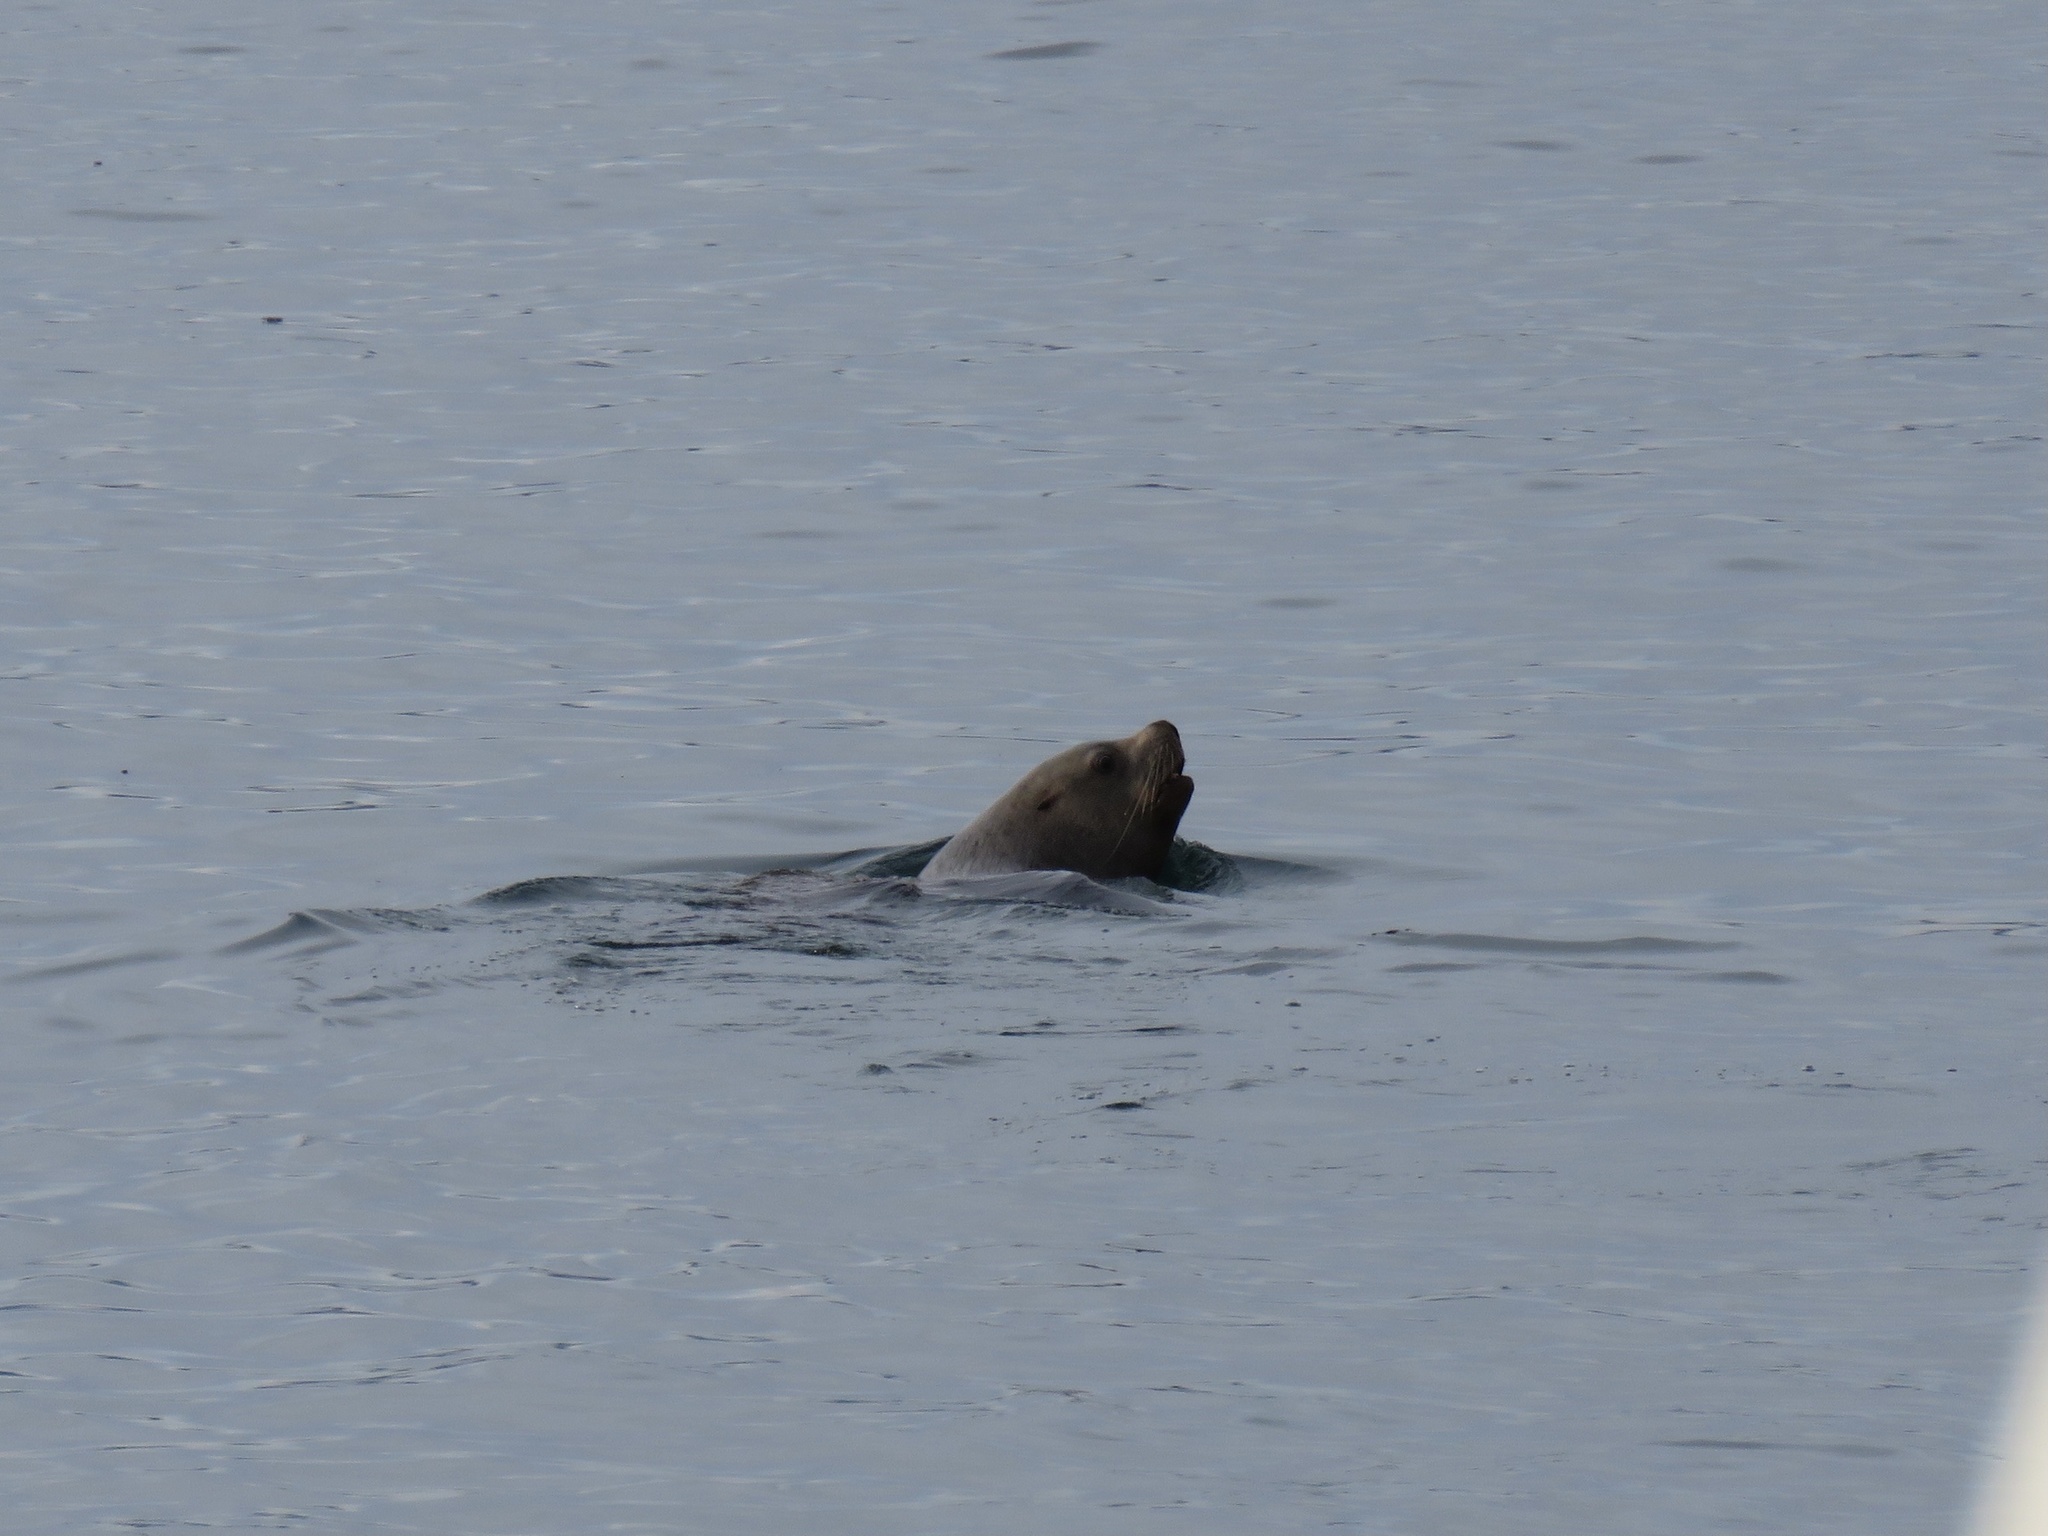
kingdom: Animalia
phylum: Chordata
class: Mammalia
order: Carnivora
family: Otariidae
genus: Eumetopias
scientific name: Eumetopias jubatus
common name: Steller sea lion
